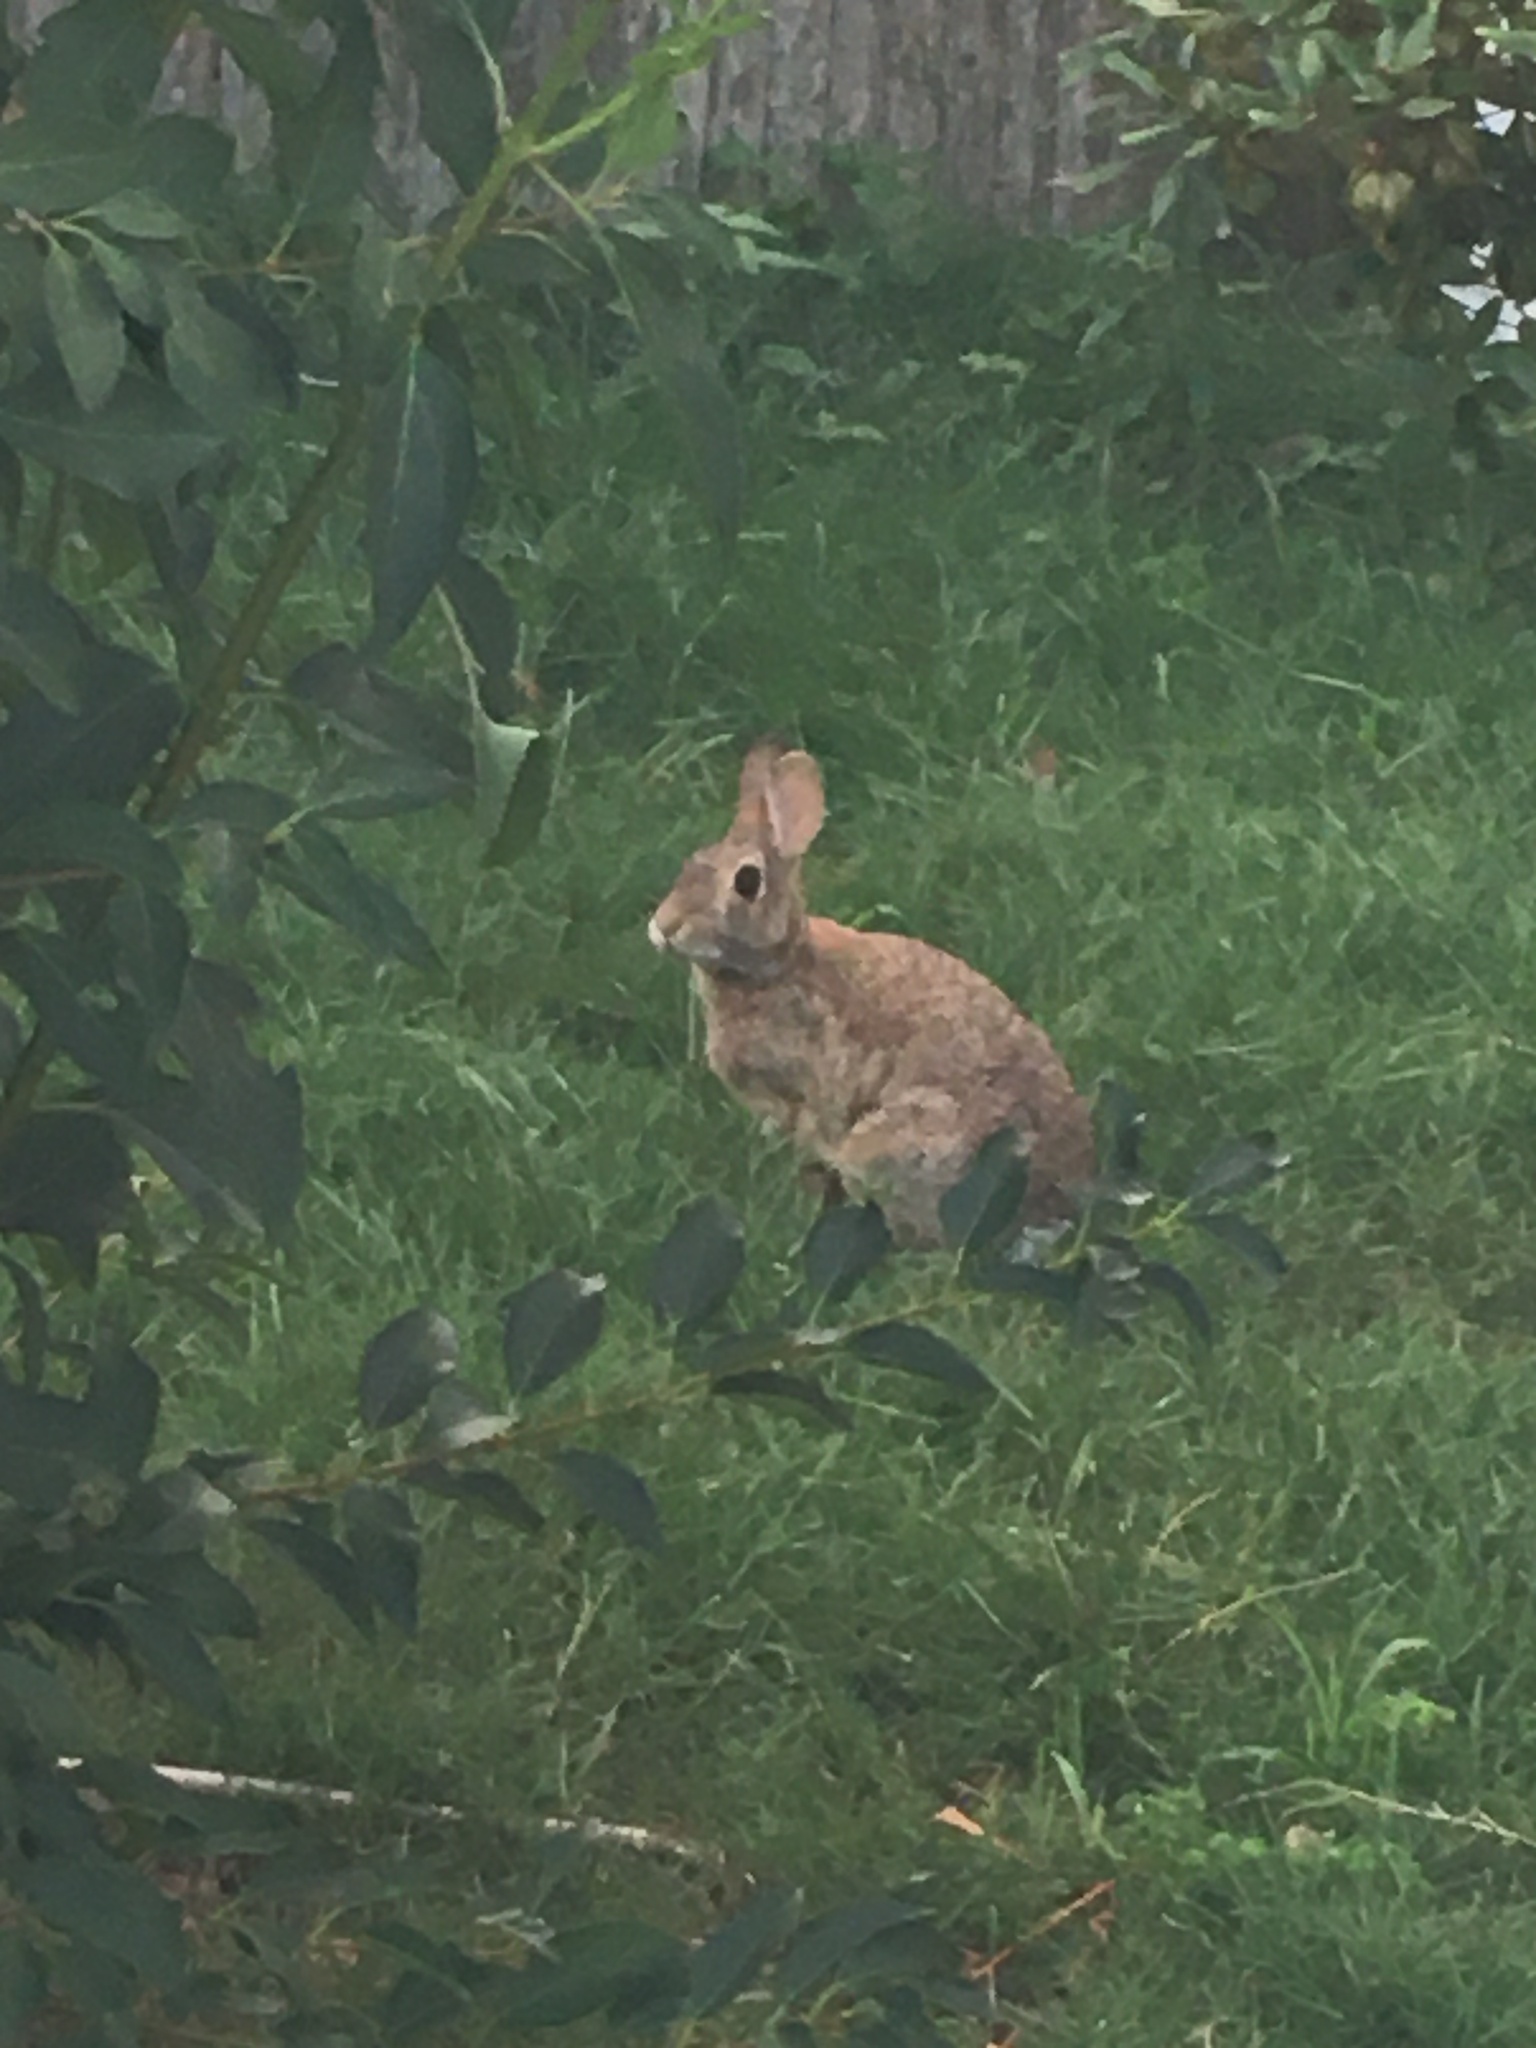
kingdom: Animalia
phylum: Chordata
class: Mammalia
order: Lagomorpha
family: Leporidae
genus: Sylvilagus
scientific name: Sylvilagus floridanus
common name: Eastern cottontail
